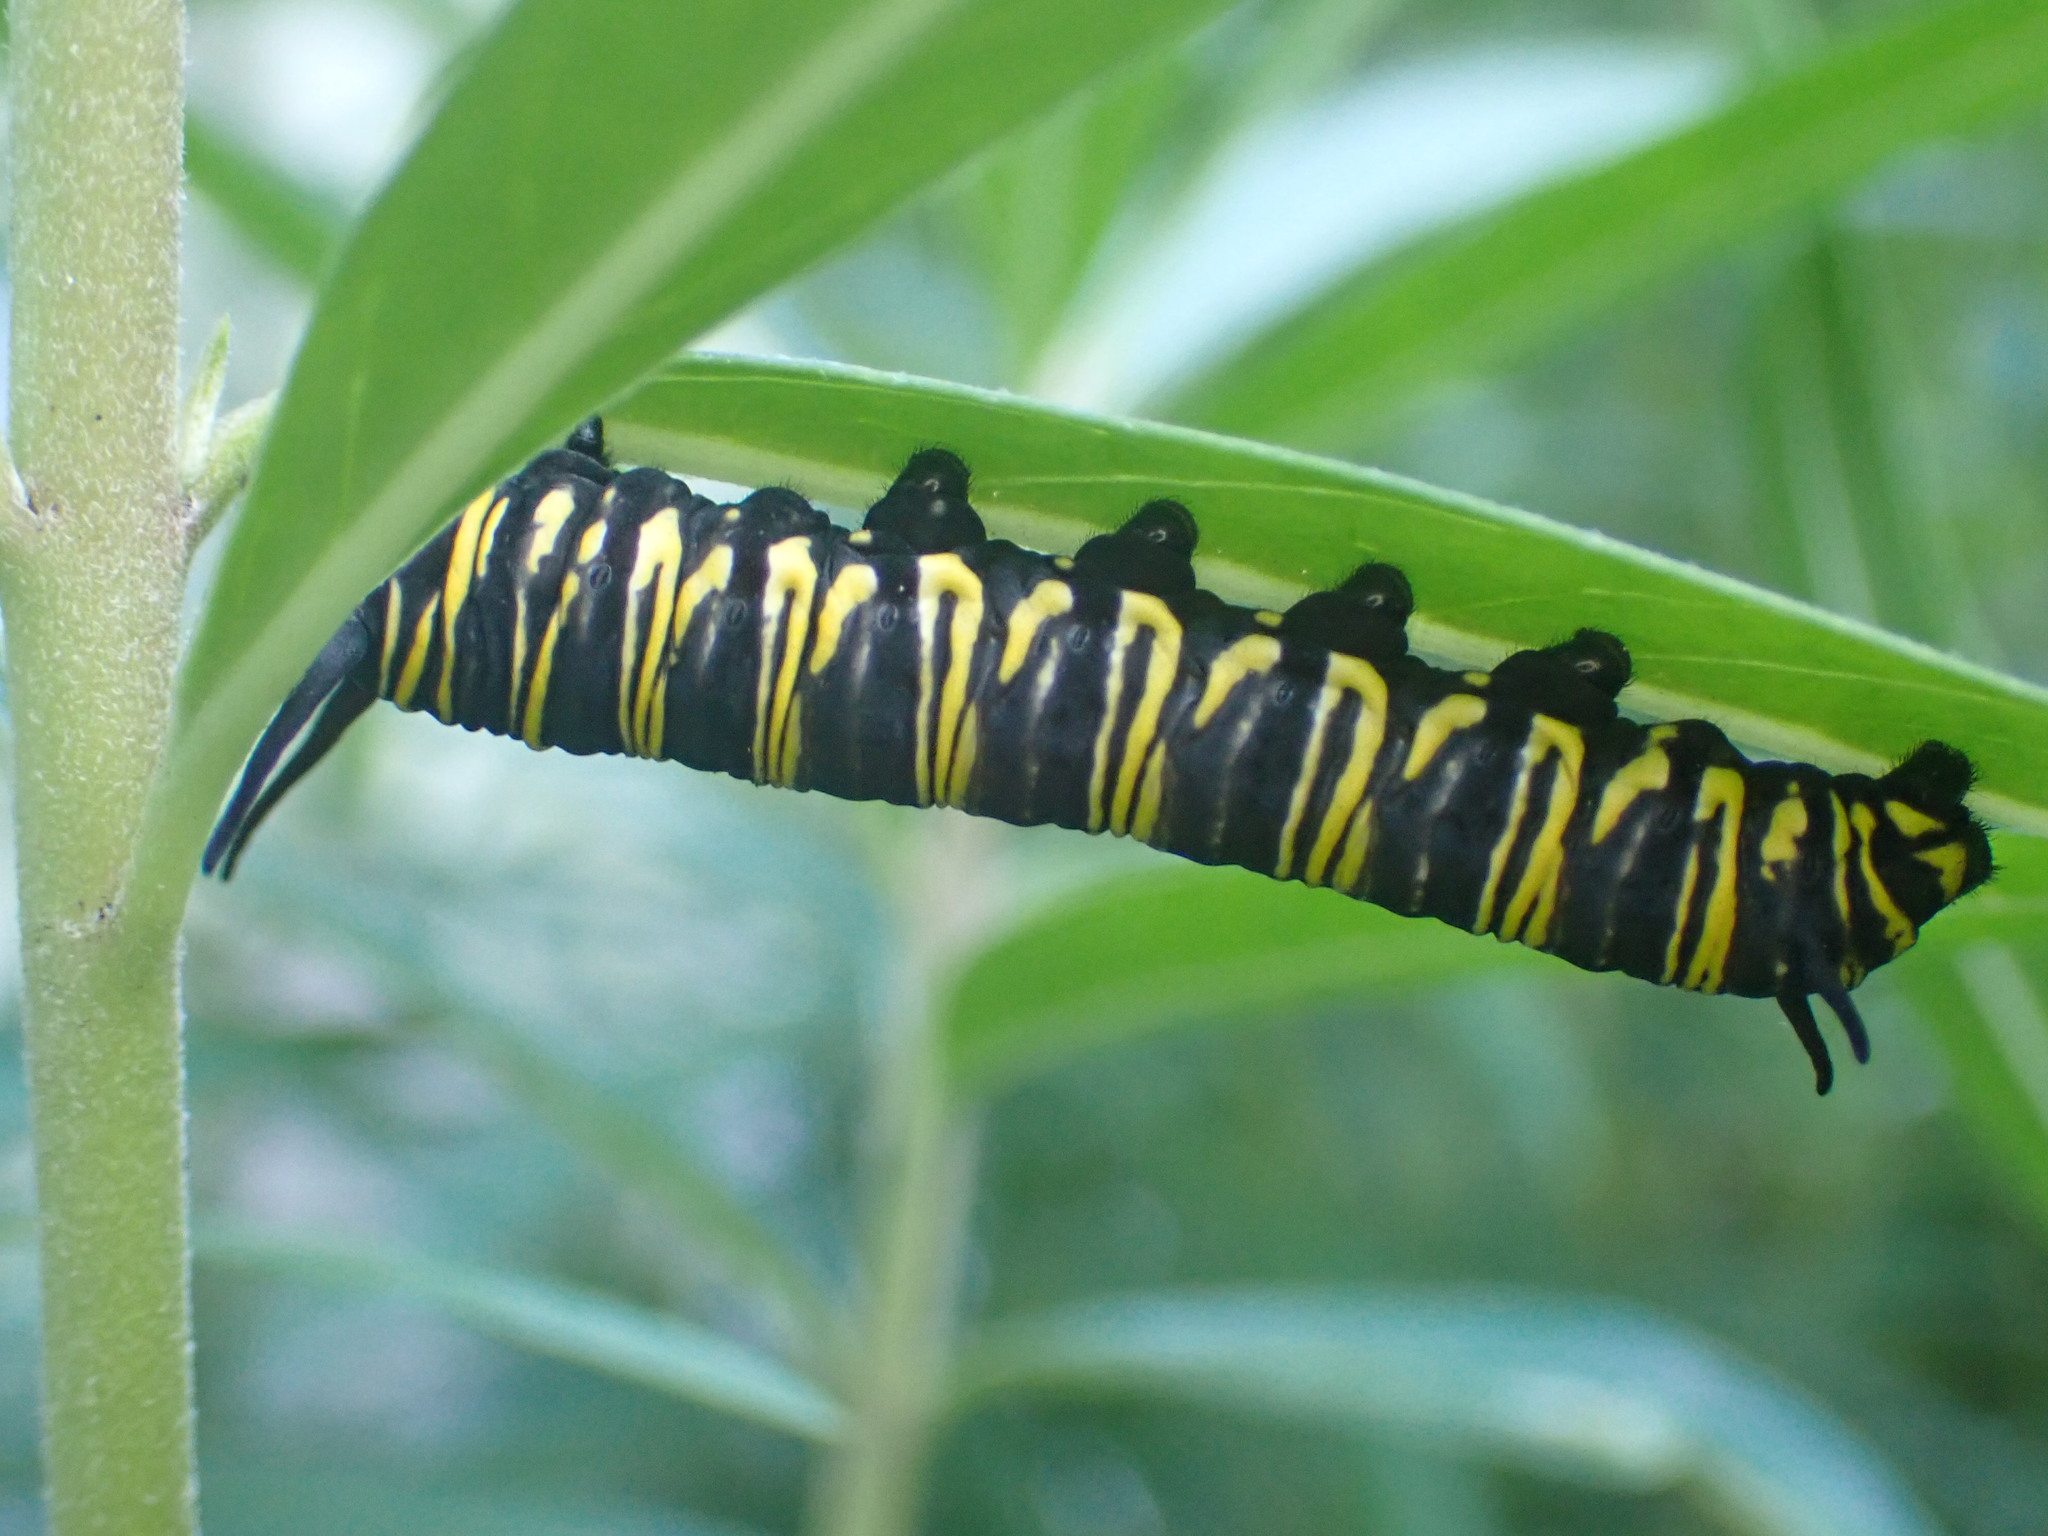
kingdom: Animalia
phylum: Arthropoda
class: Insecta
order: Lepidoptera
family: Nymphalidae
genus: Danaus
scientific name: Danaus plexippus
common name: Monarch
